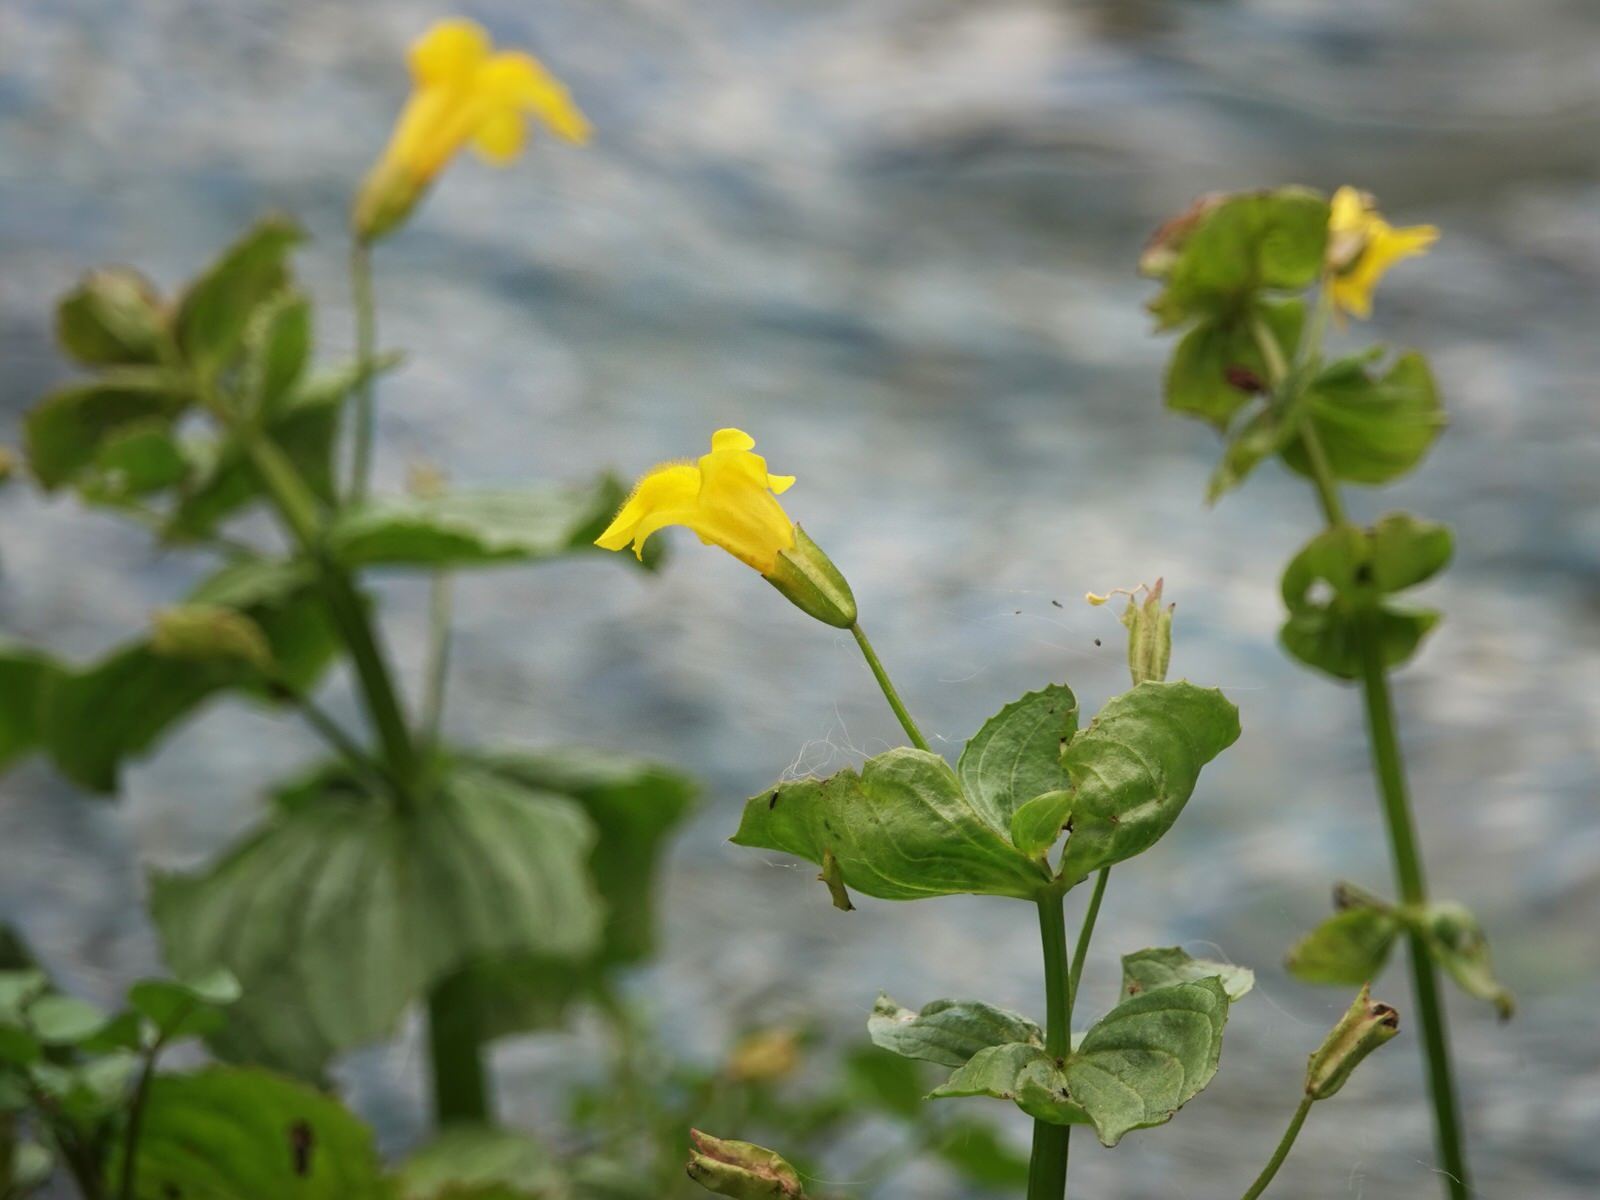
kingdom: Plantae
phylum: Tracheophyta
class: Magnoliopsida
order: Lamiales
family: Phrymaceae
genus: Erythranthe
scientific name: Erythranthe guttata
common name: Monkeyflower
